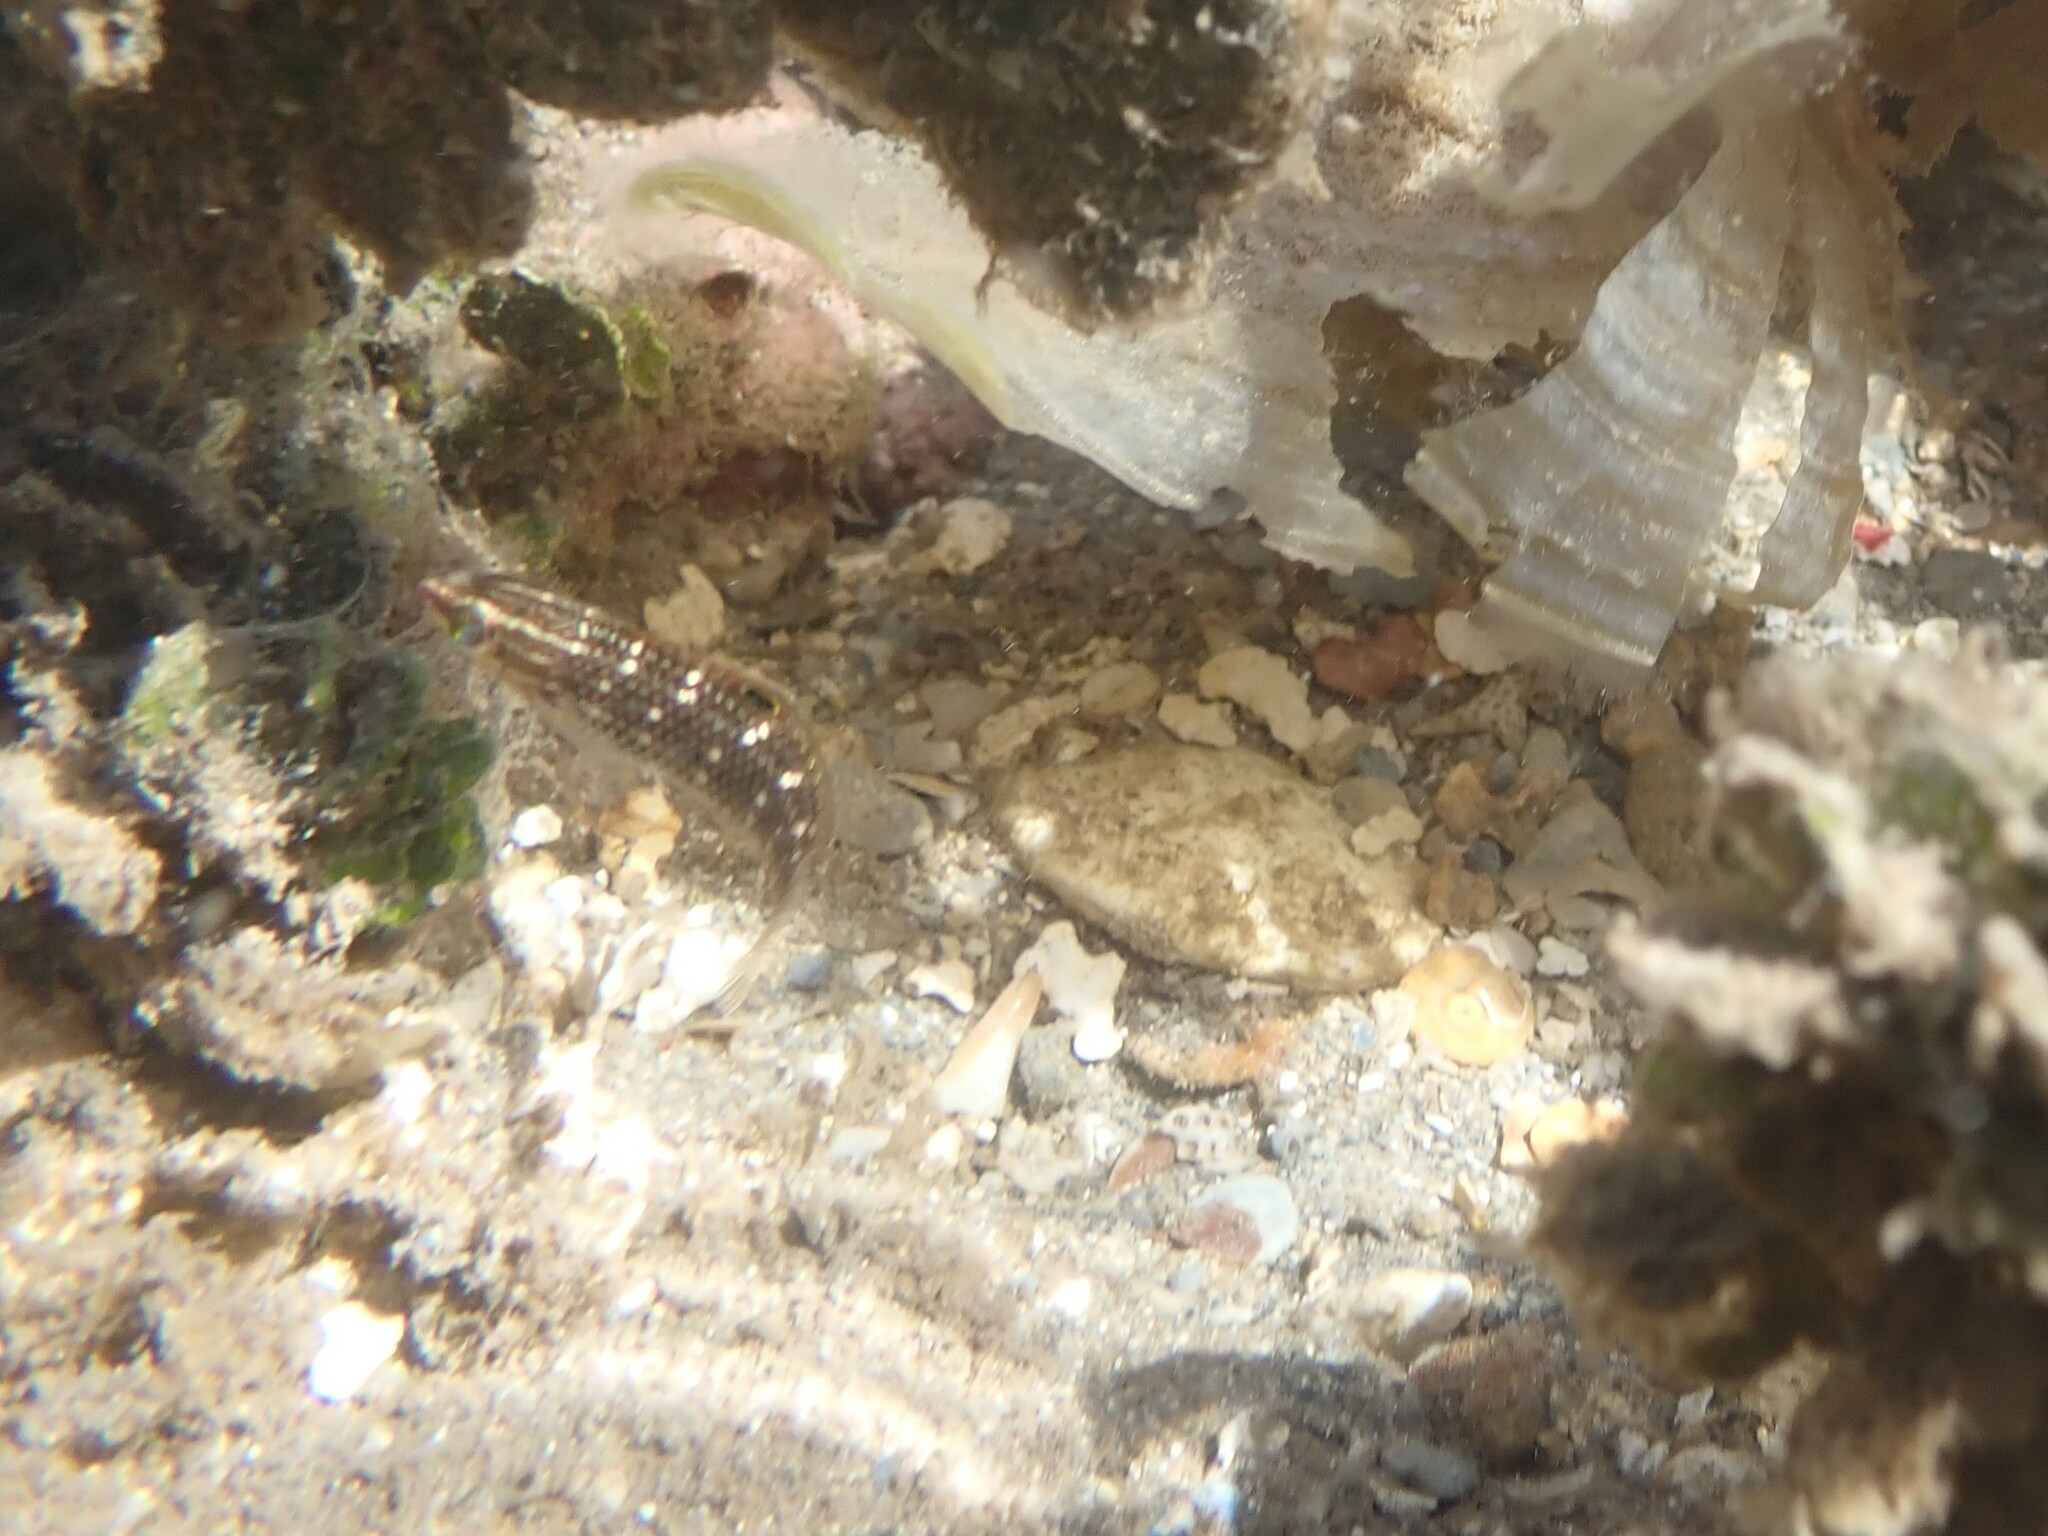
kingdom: Animalia
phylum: Chordata
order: Perciformes
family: Labridae
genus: Halichoeres
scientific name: Halichoeres argus
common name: Argus wrasse
